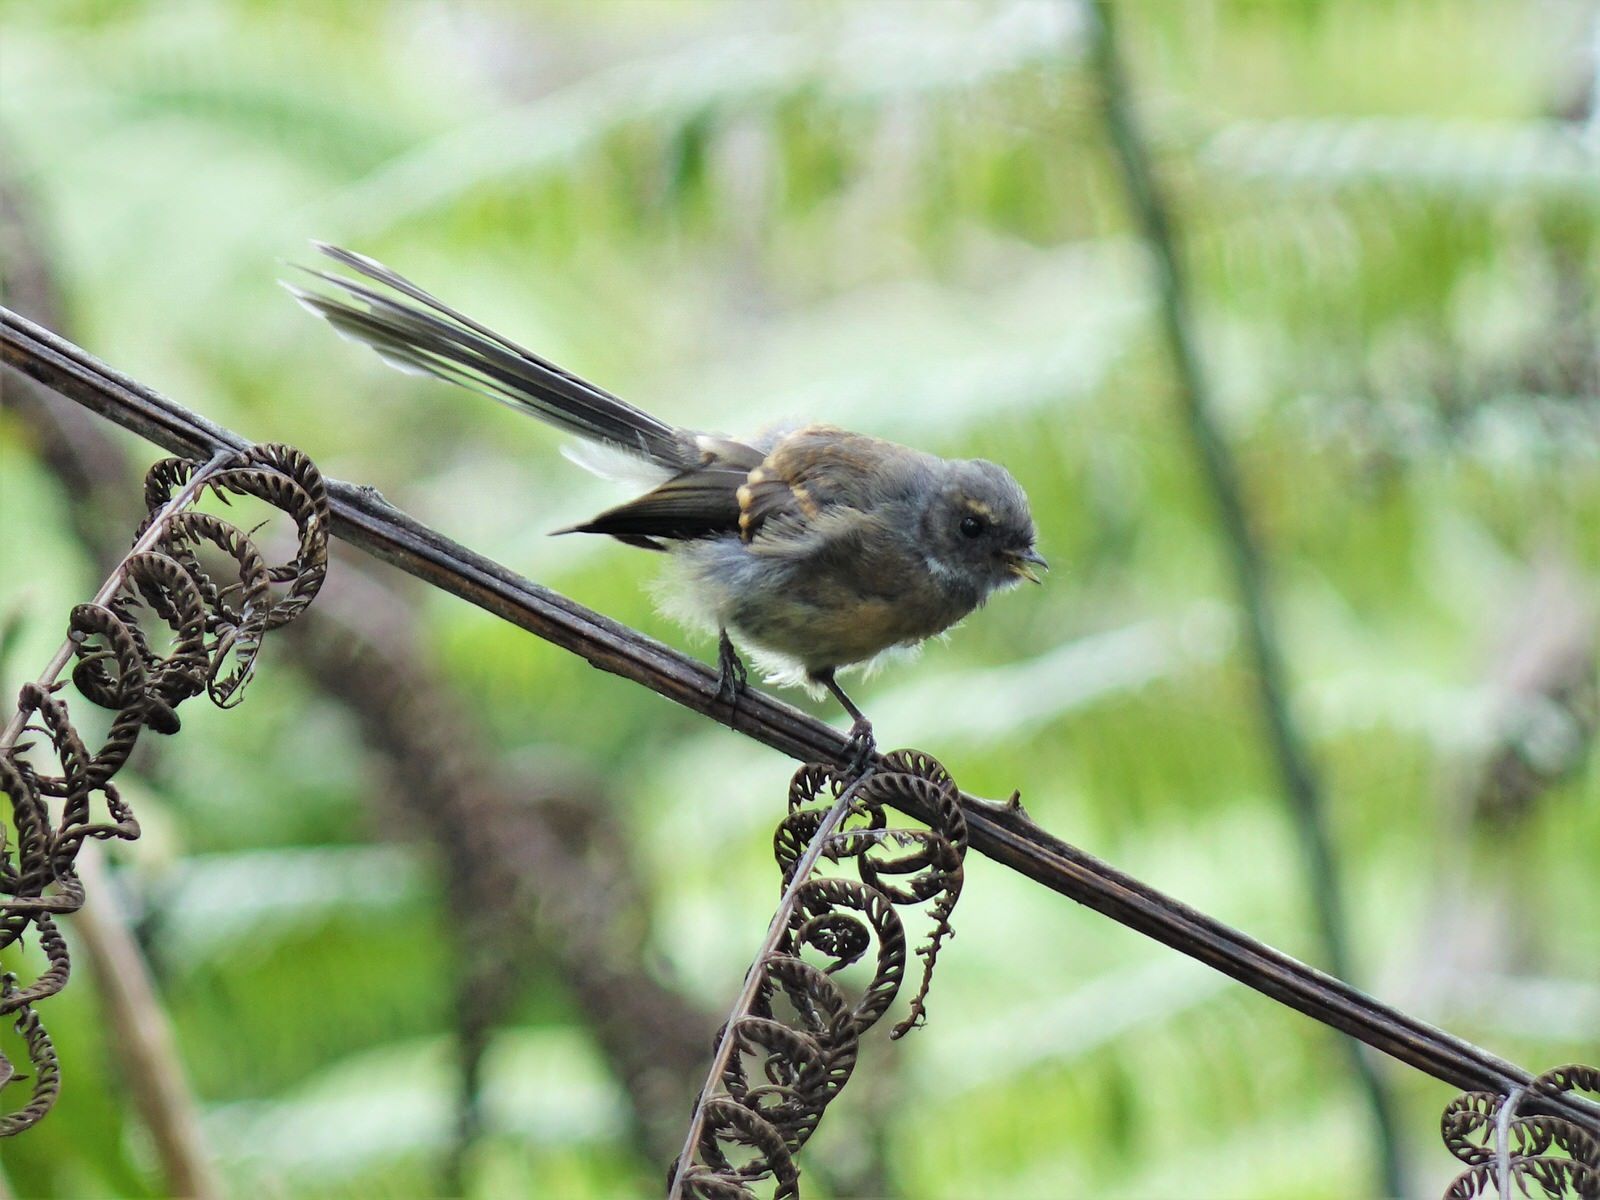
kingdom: Animalia
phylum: Chordata
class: Aves
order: Passeriformes
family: Rhipiduridae
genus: Rhipidura
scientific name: Rhipidura fuliginosa
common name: New zealand fantail
